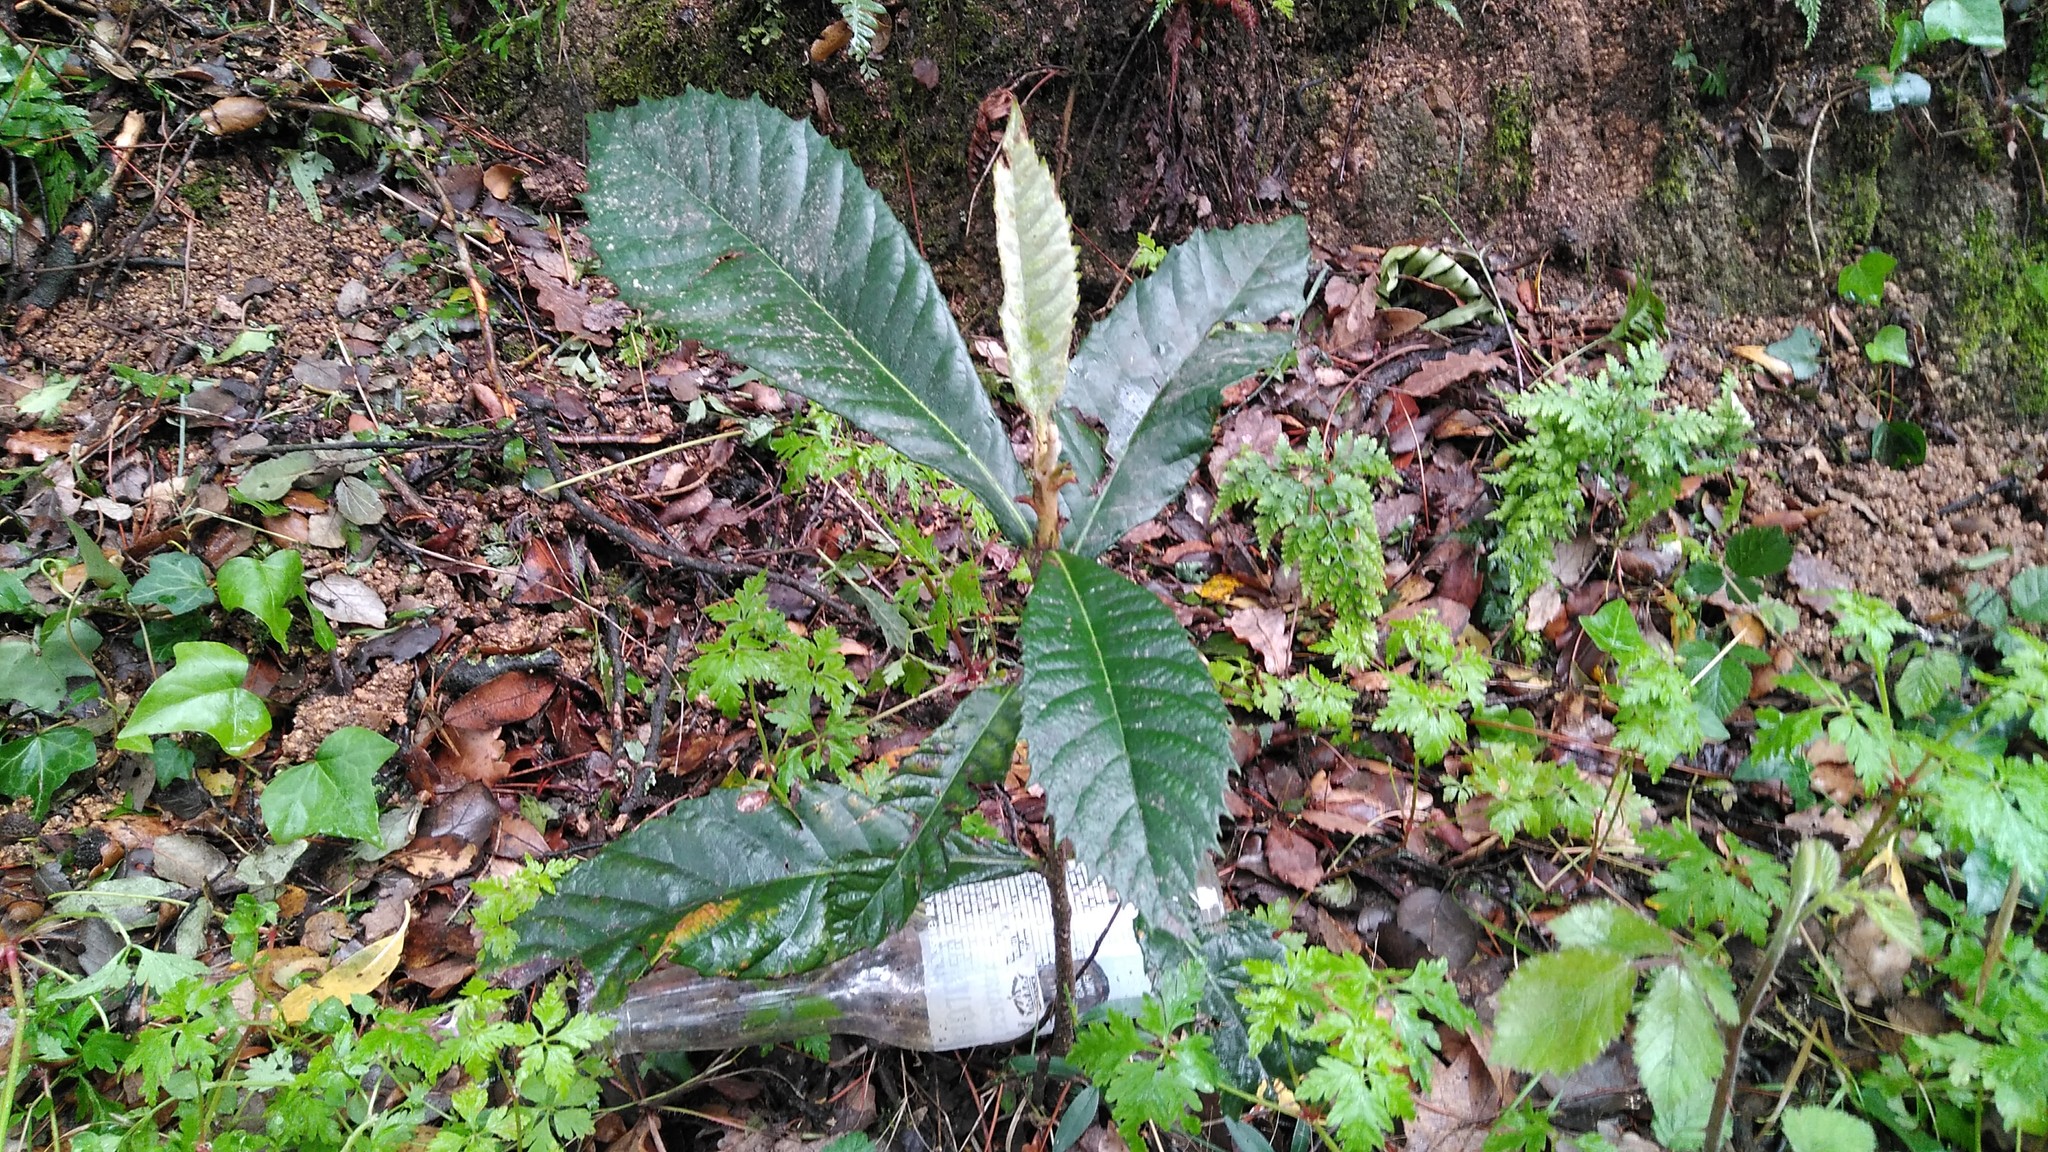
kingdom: Plantae
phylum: Tracheophyta
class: Magnoliopsida
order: Rosales
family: Rosaceae
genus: Rhaphiolepis
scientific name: Rhaphiolepis bibas
